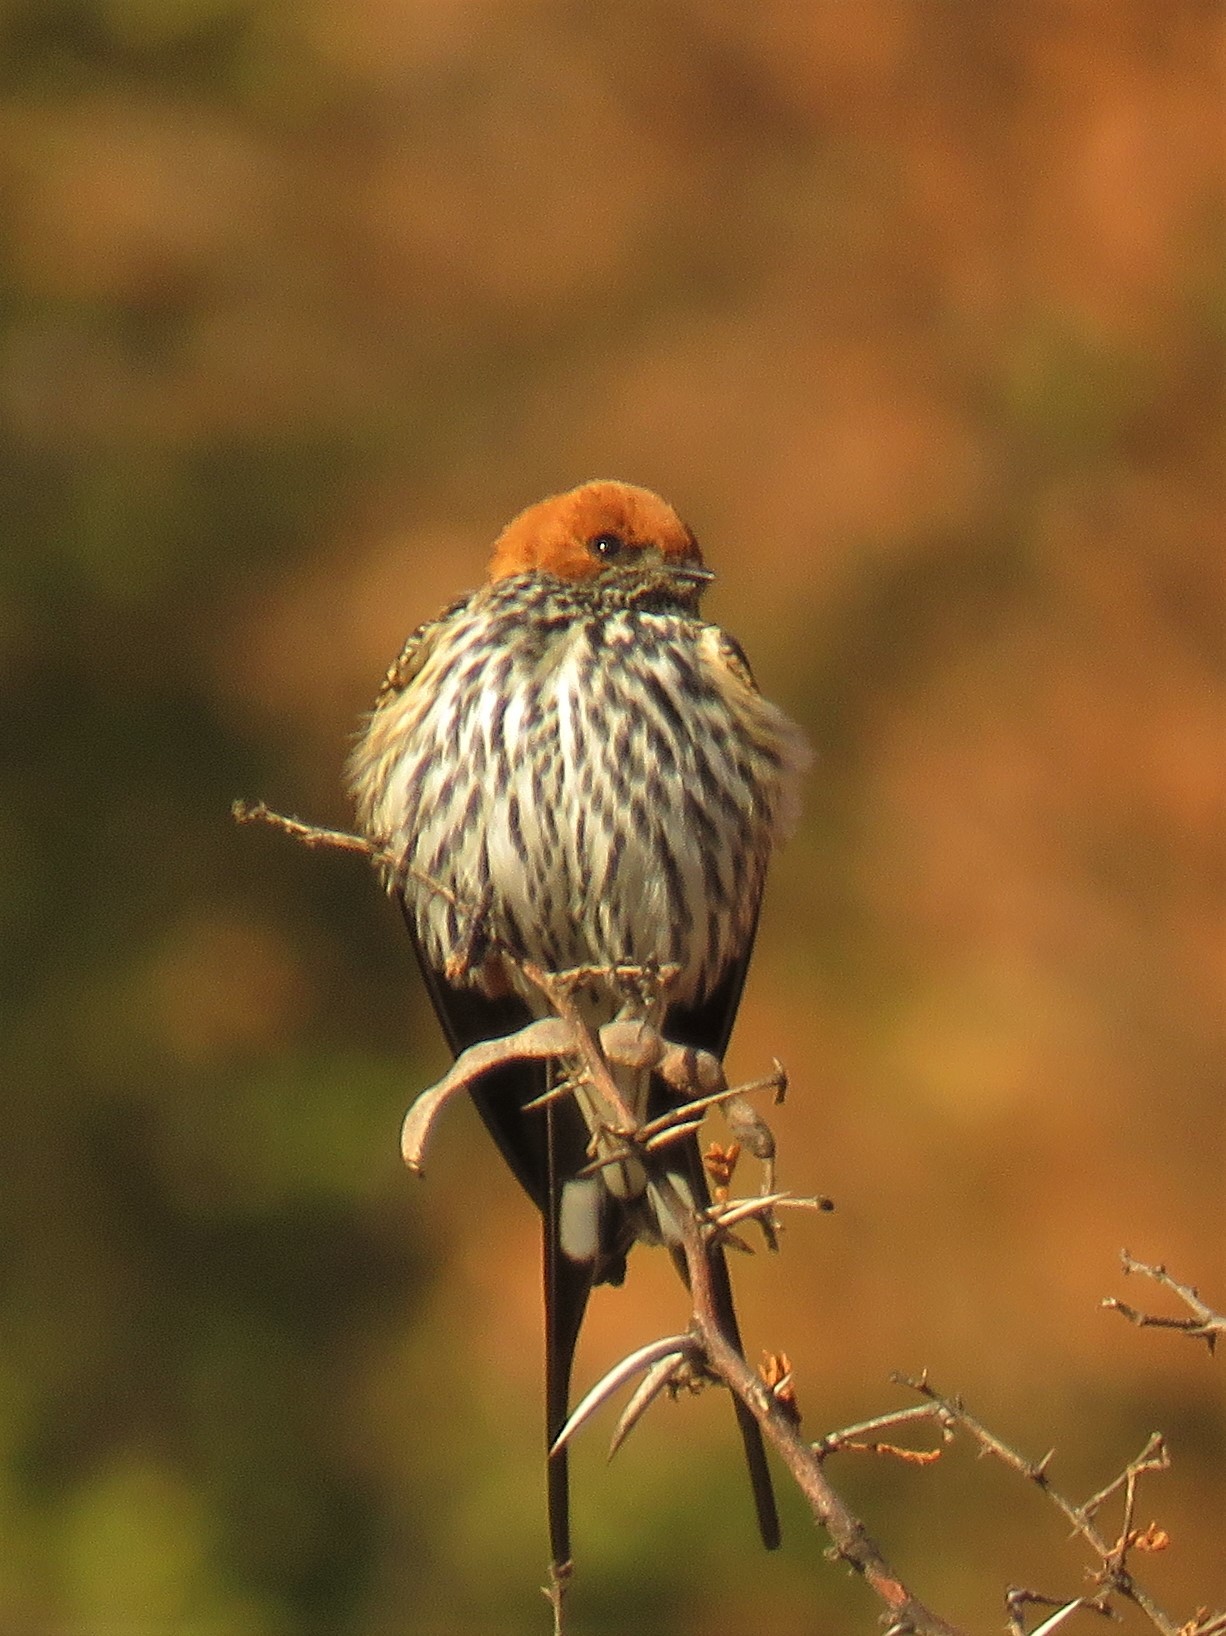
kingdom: Animalia
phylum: Chordata
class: Aves
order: Passeriformes
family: Hirundinidae
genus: Cecropis
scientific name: Cecropis abyssinica
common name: Lesser striped-swallow
